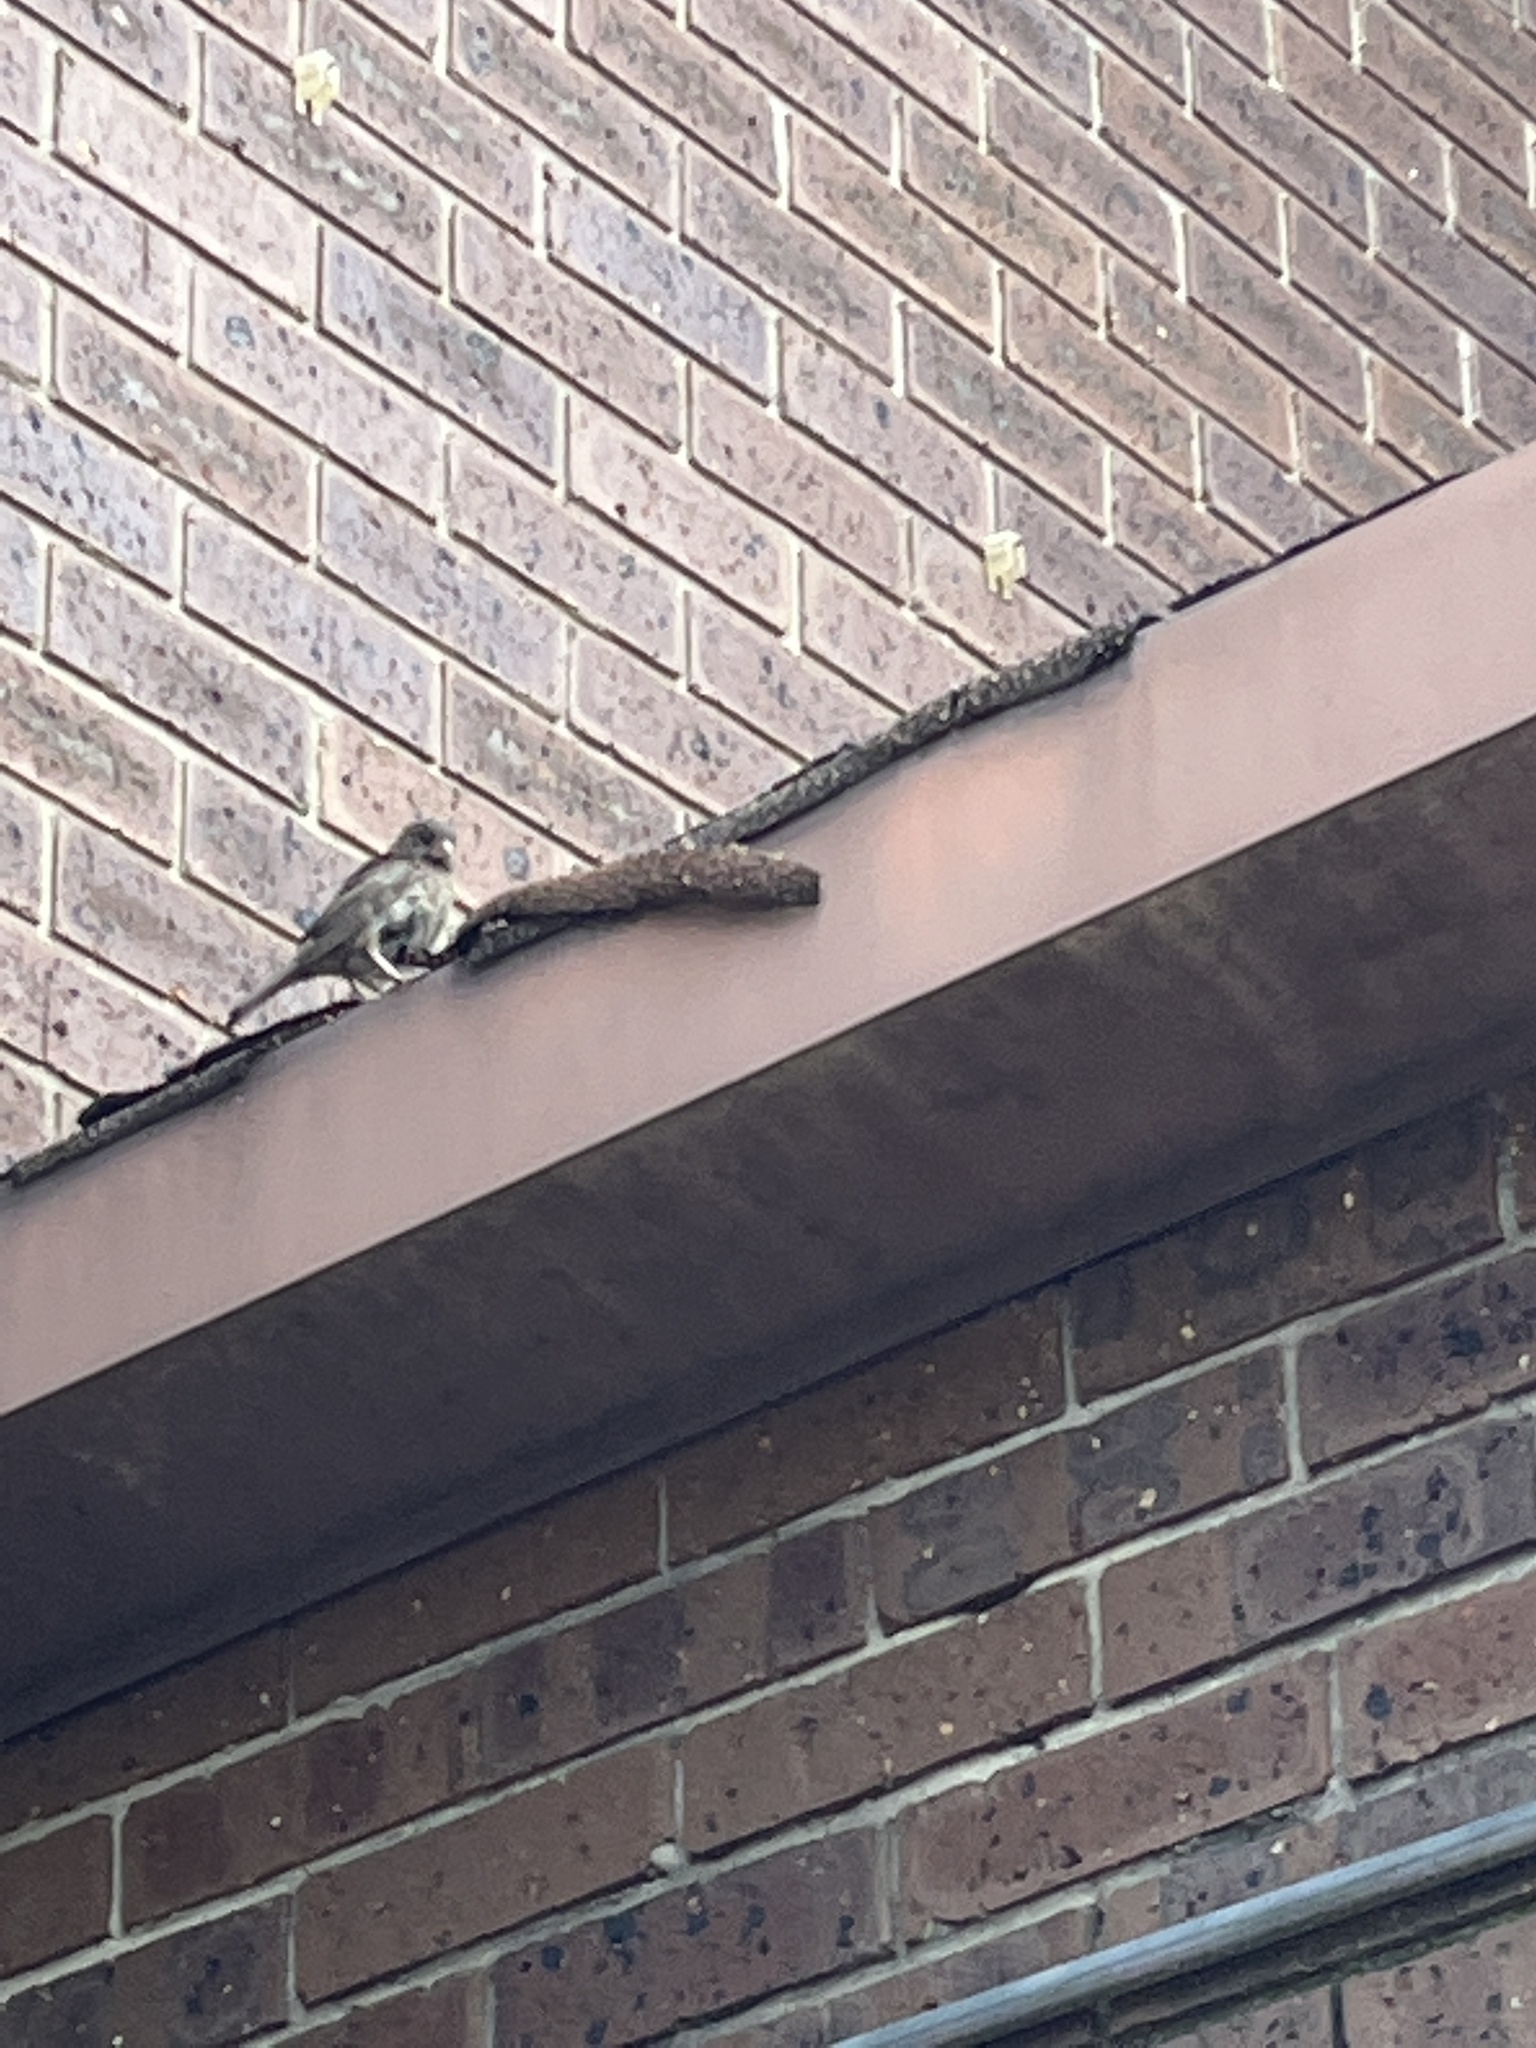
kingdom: Animalia
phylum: Chordata
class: Aves
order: Passeriformes
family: Passeridae
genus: Passer
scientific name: Passer domesticus
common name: House sparrow
